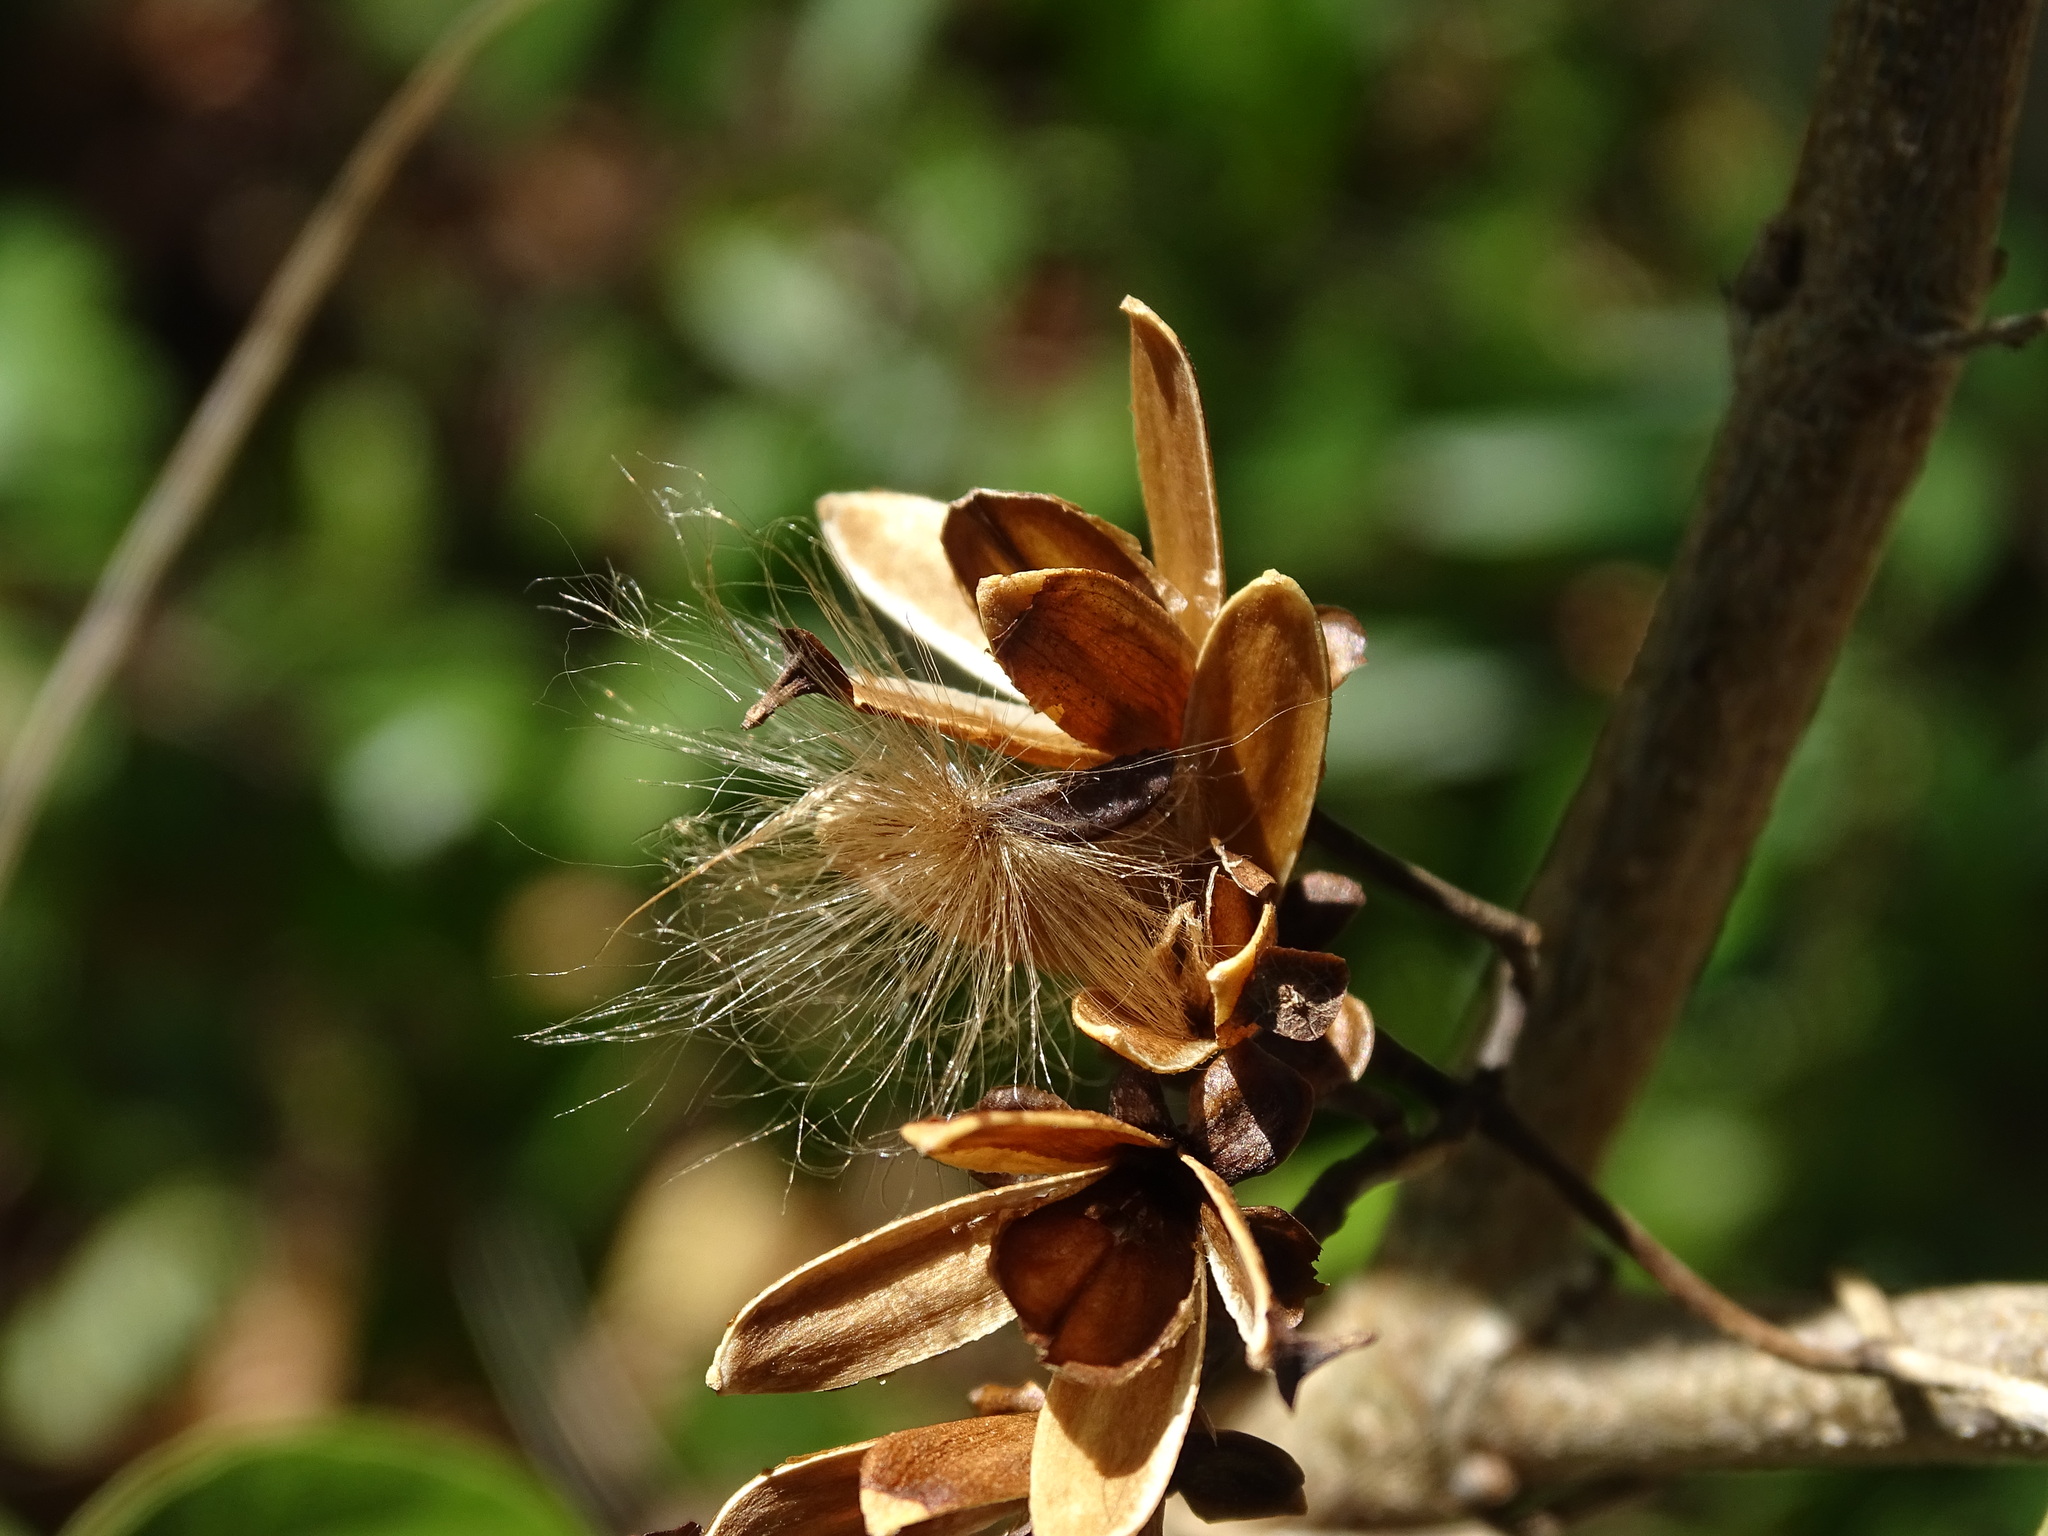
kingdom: Plantae
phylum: Tracheophyta
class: Magnoliopsida
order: Solanales
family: Convolvulaceae
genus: Ipomoea
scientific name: Ipomoea clavata
